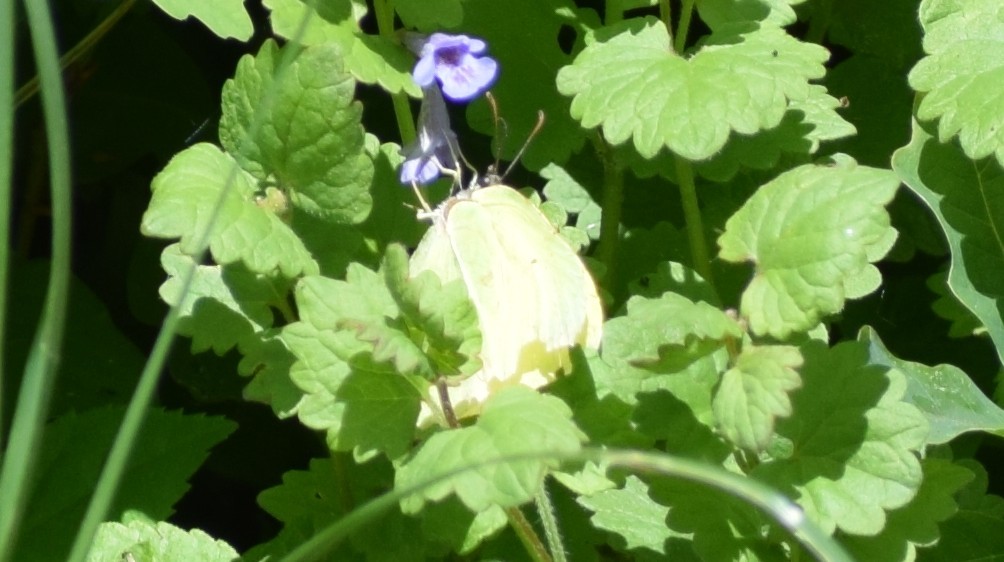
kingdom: Animalia
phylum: Arthropoda
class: Insecta
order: Lepidoptera
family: Pieridae
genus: Gonepteryx
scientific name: Gonepteryx rhamni
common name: Brimstone
